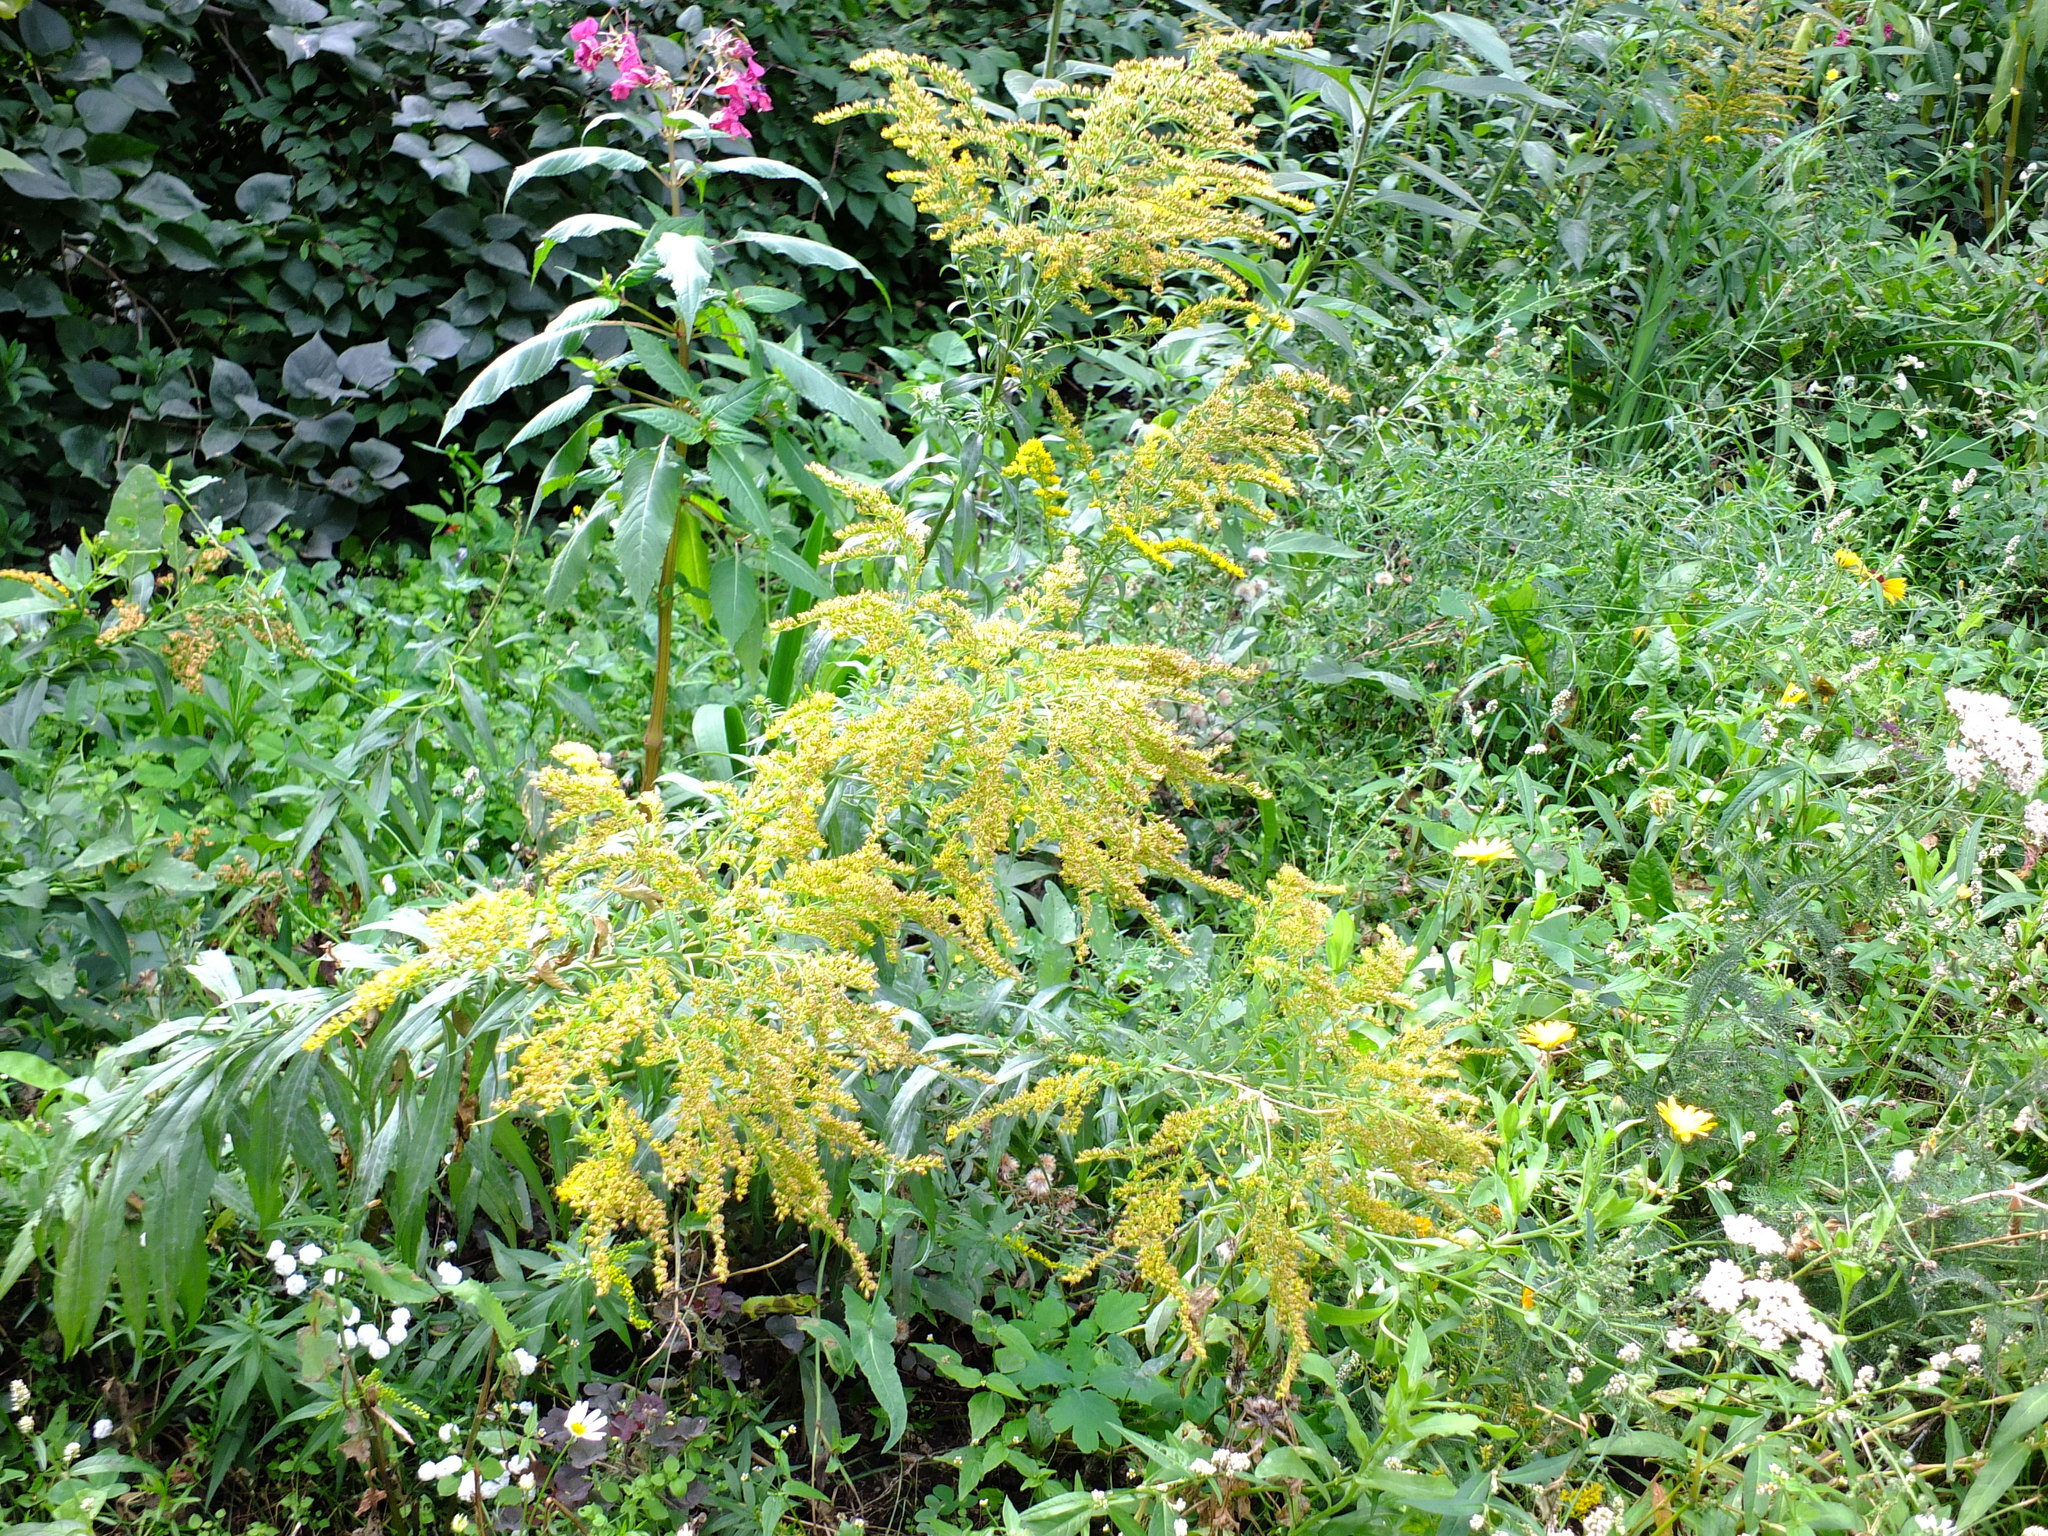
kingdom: Plantae
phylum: Tracheophyta
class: Magnoliopsida
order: Asterales
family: Asteraceae
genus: Solidago
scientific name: Solidago canadensis
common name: Canada goldenrod
